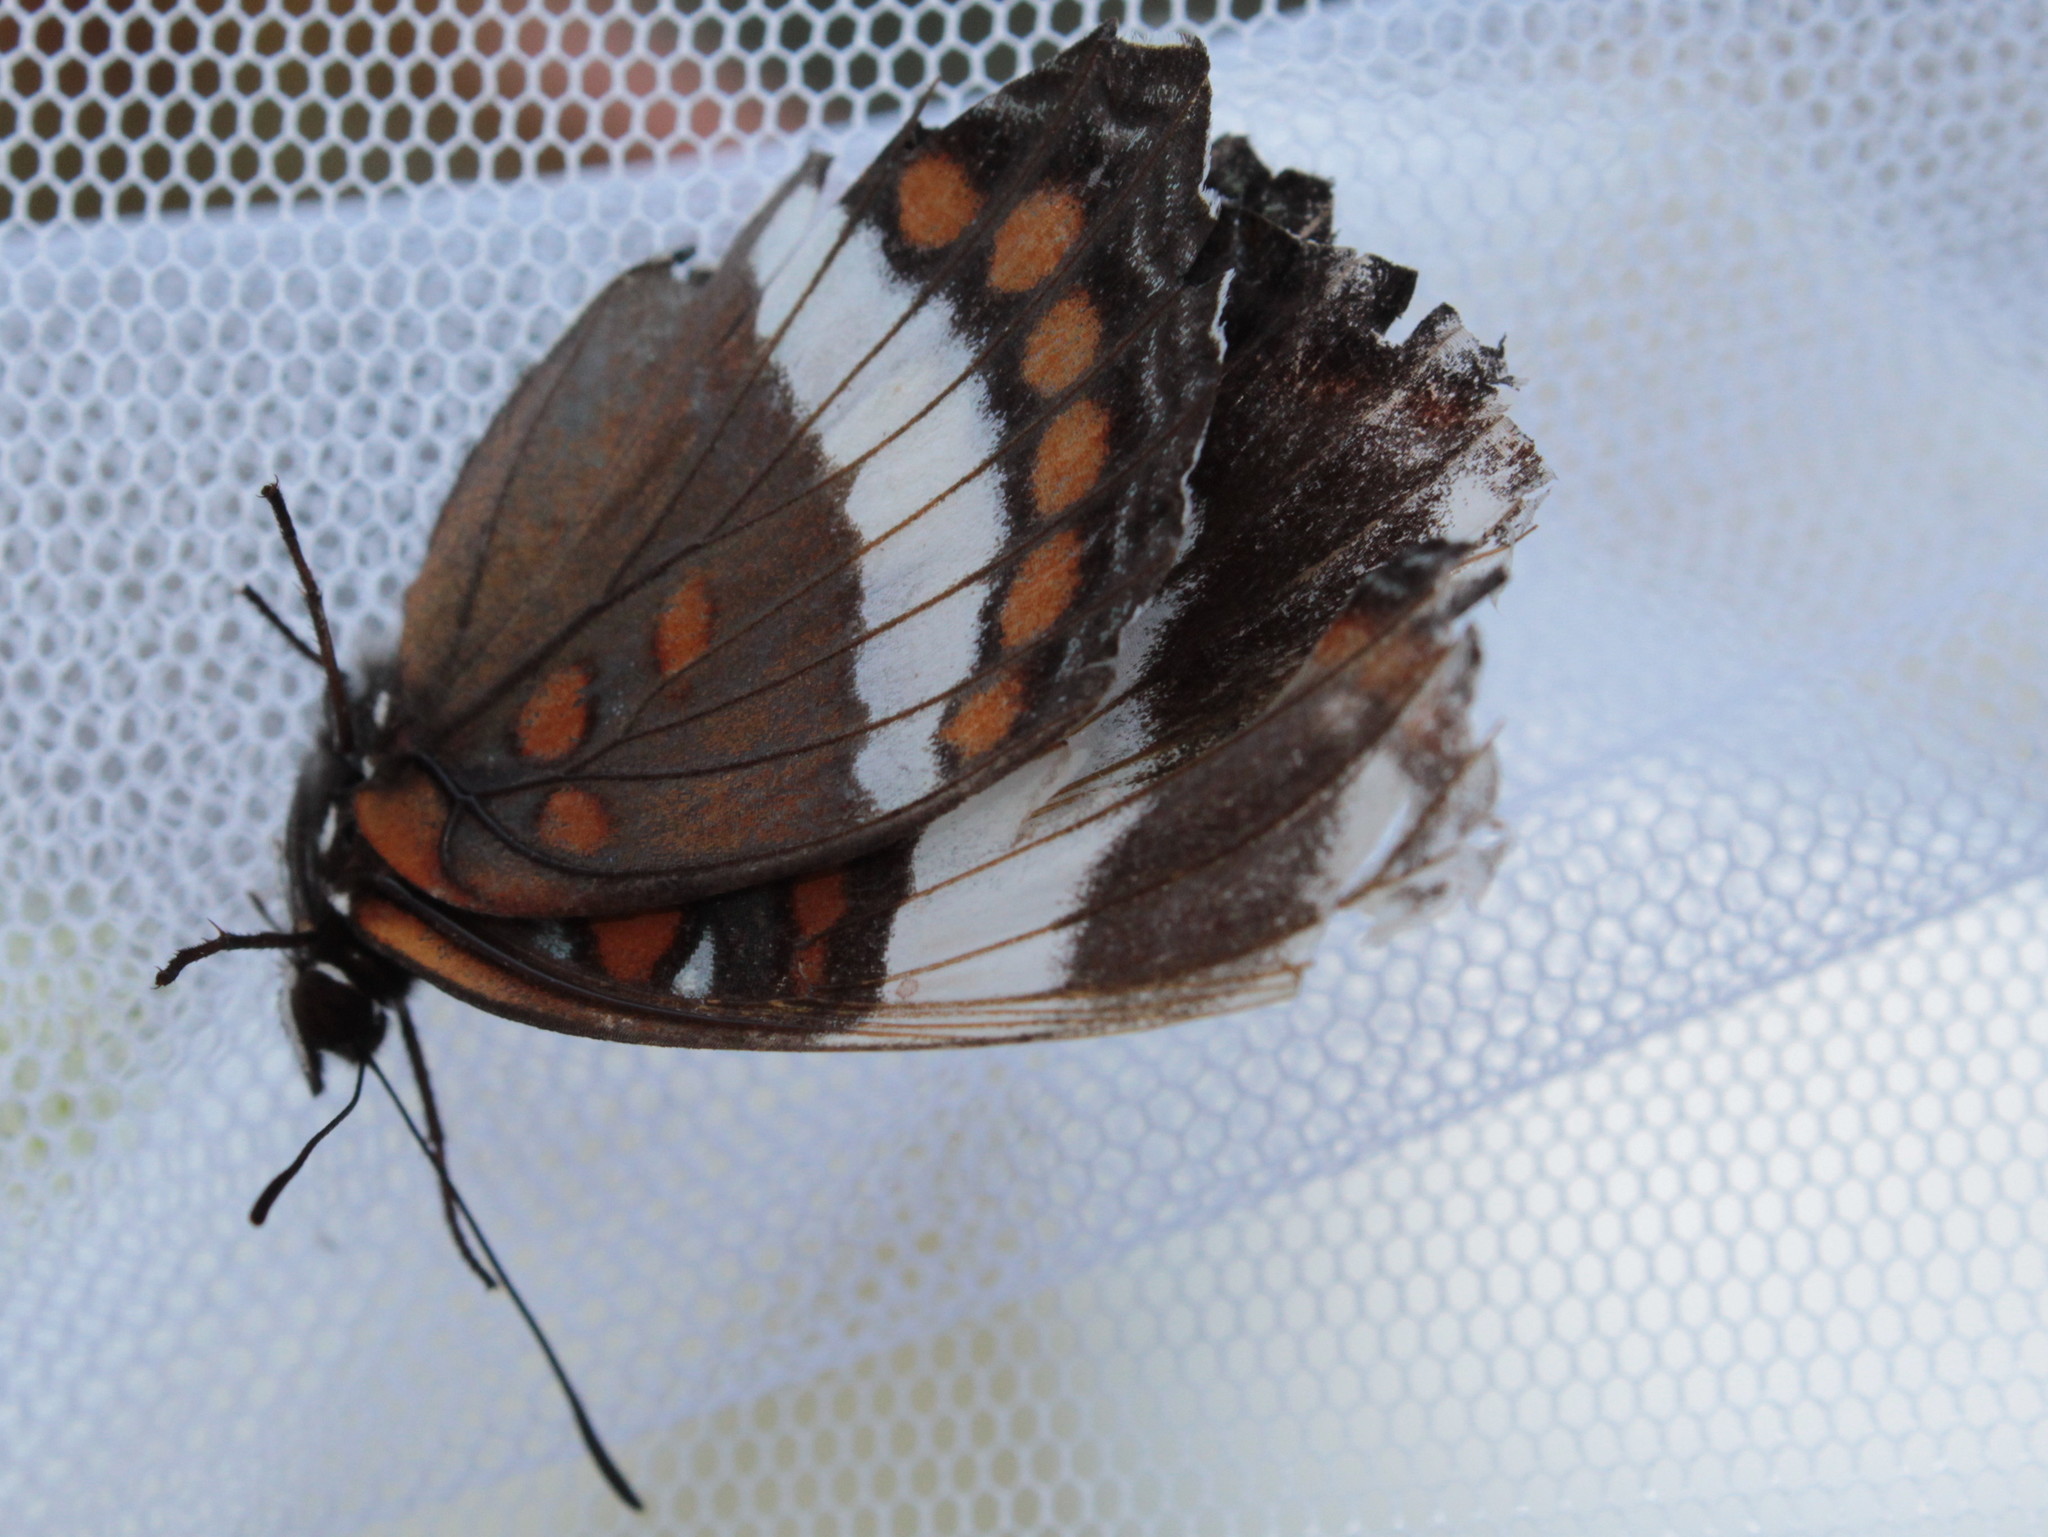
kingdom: Animalia
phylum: Arthropoda
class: Insecta
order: Lepidoptera
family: Nymphalidae
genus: Limenitis
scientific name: Limenitis arthemis
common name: Red-spotted admiral
